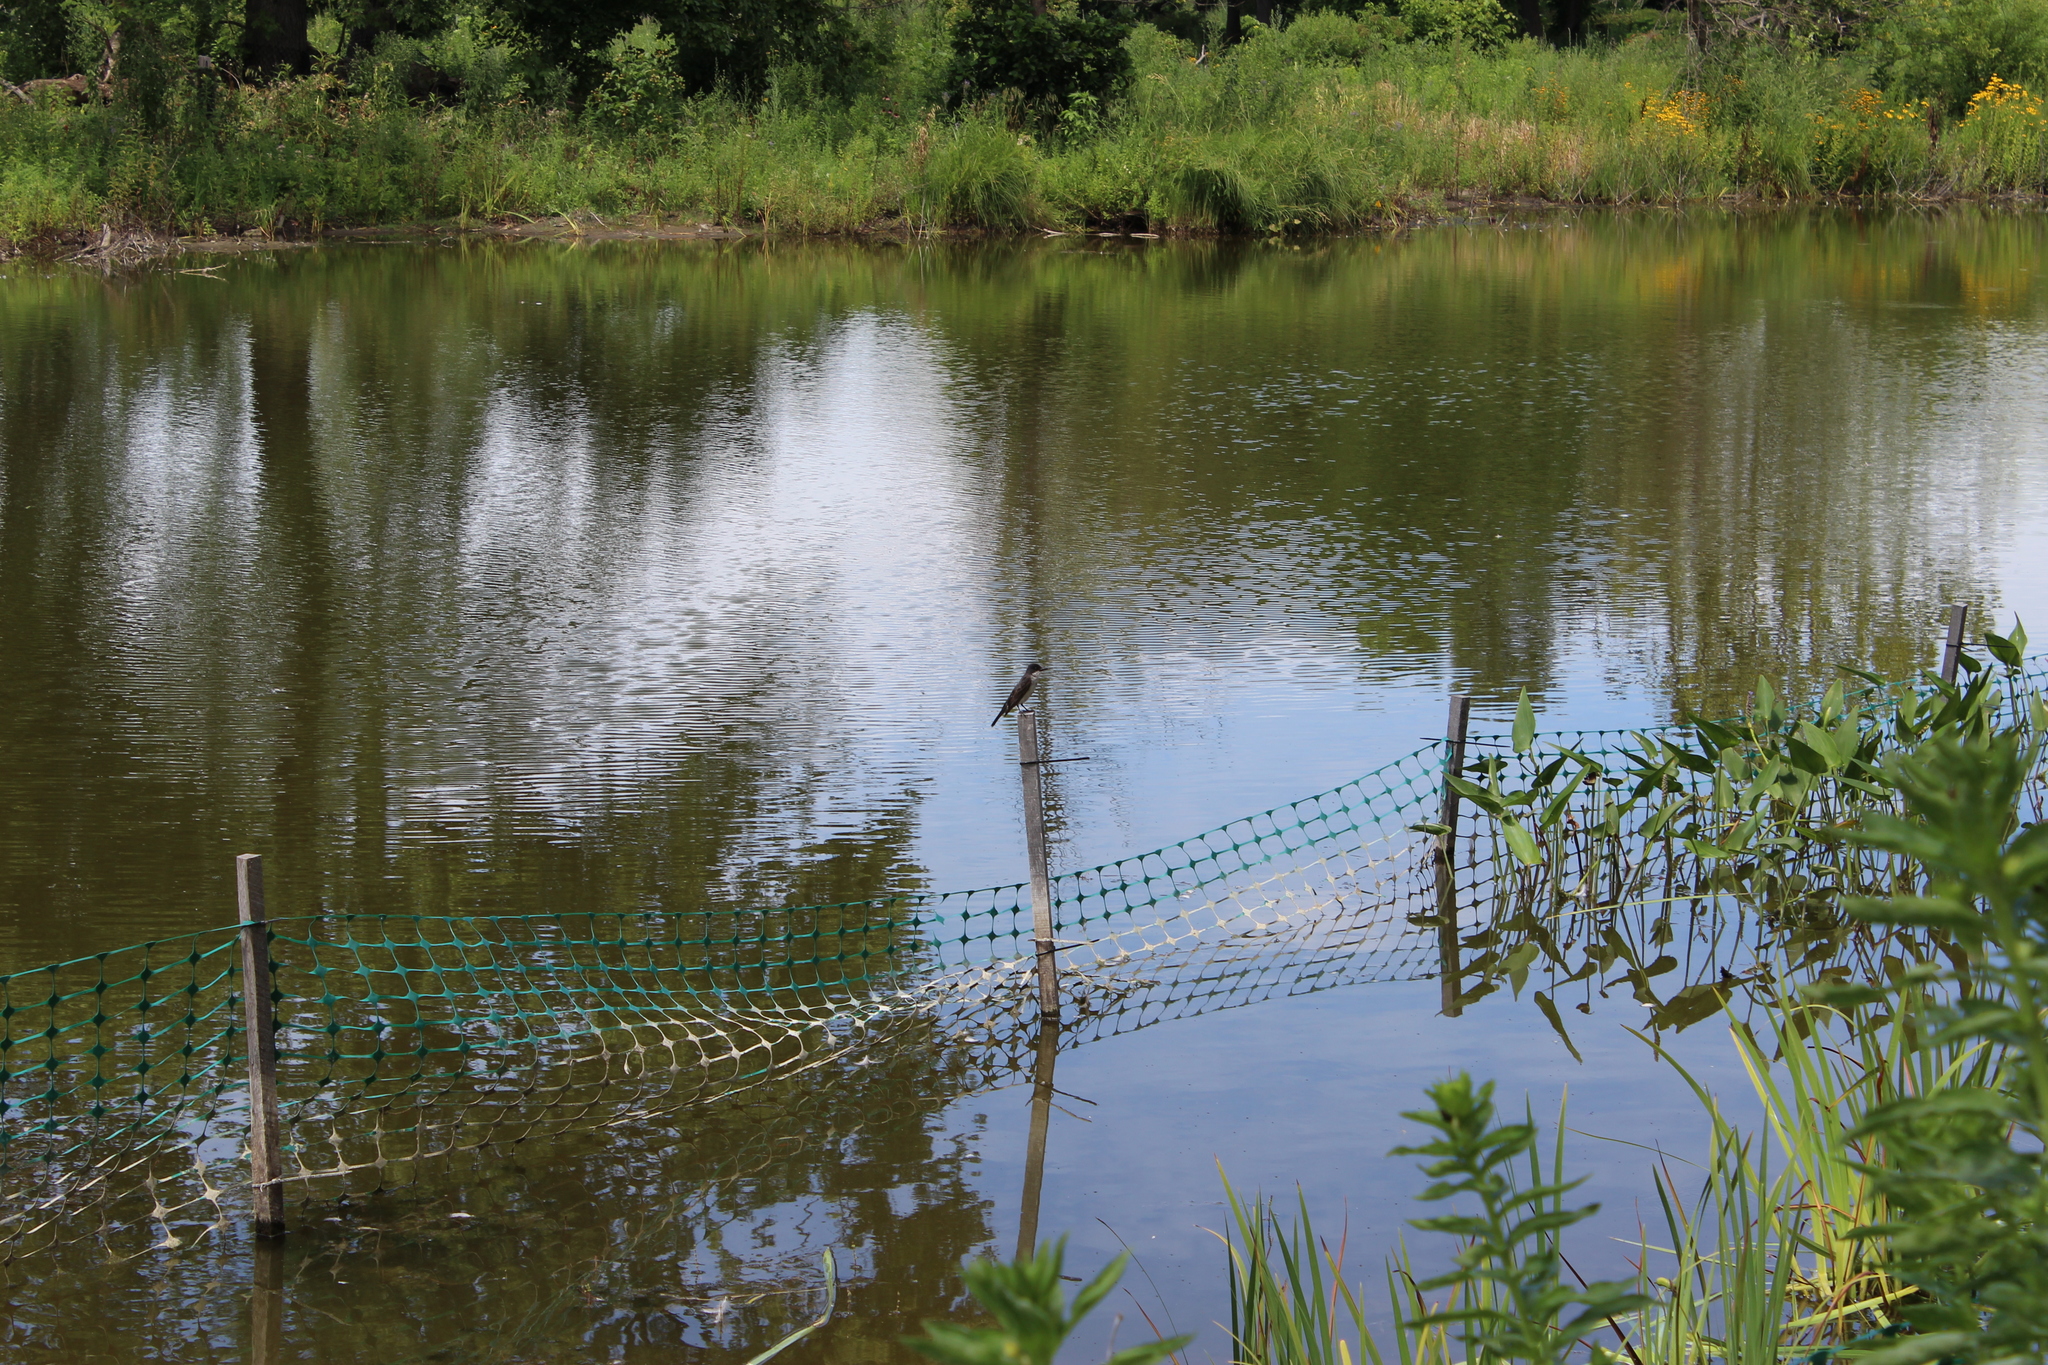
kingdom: Animalia
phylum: Chordata
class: Aves
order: Passeriformes
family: Tyrannidae
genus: Tyrannus
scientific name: Tyrannus tyrannus
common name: Eastern kingbird
